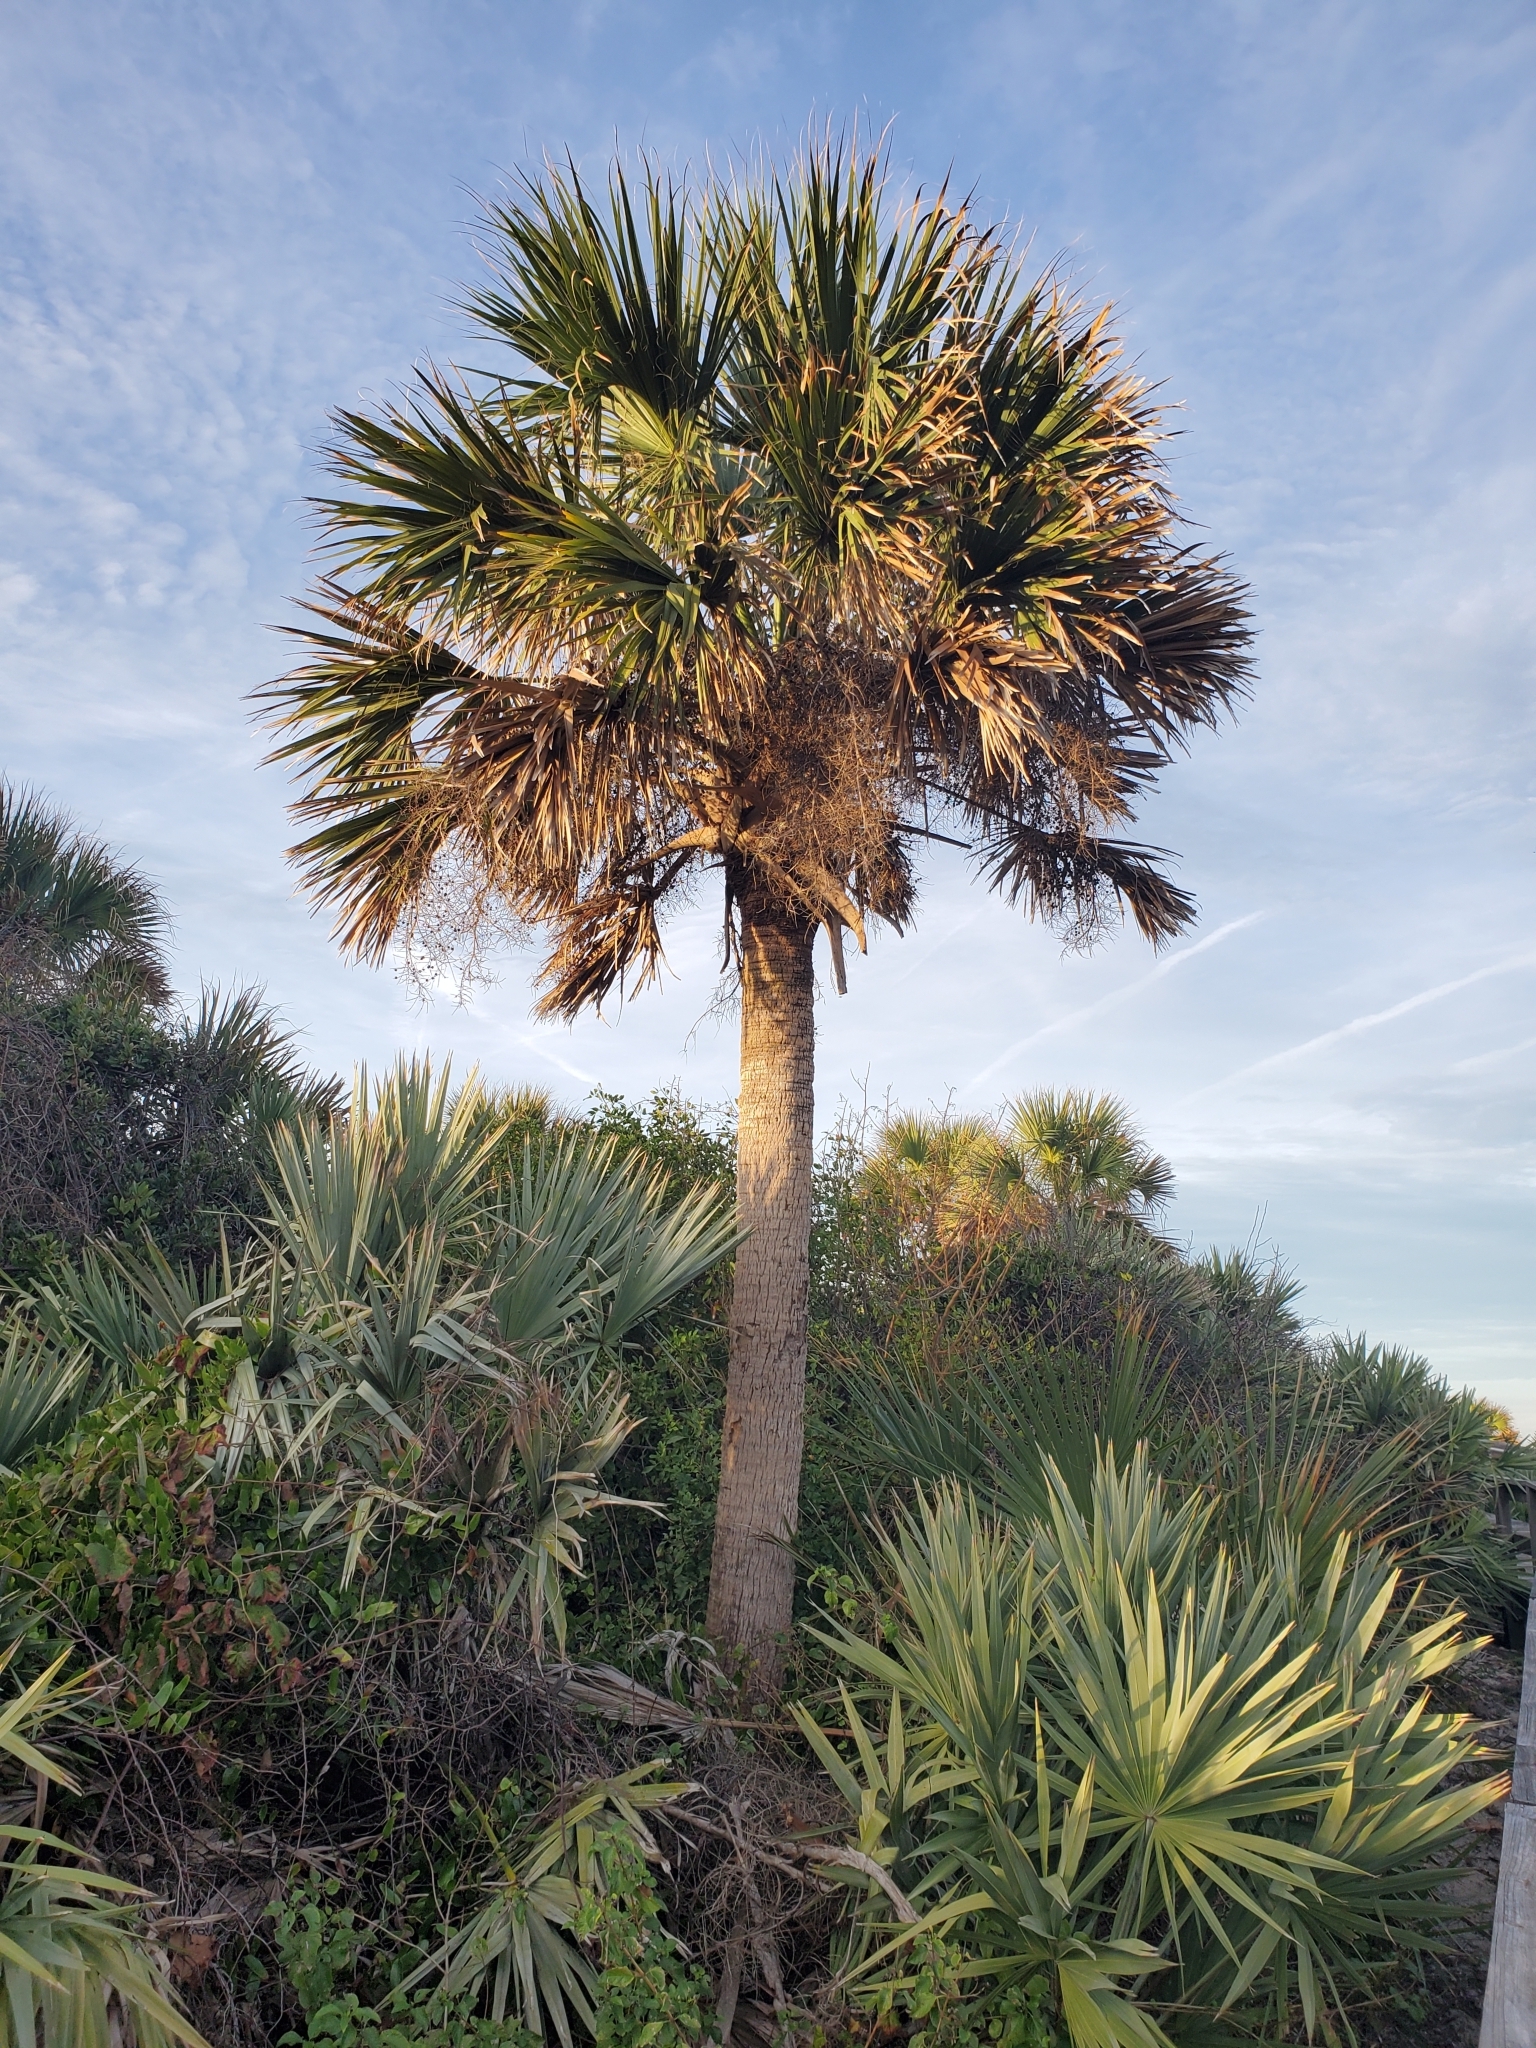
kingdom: Plantae
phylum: Tracheophyta
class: Liliopsida
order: Arecales
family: Arecaceae
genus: Sabal
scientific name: Sabal palmetto
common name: Blue palmetto
